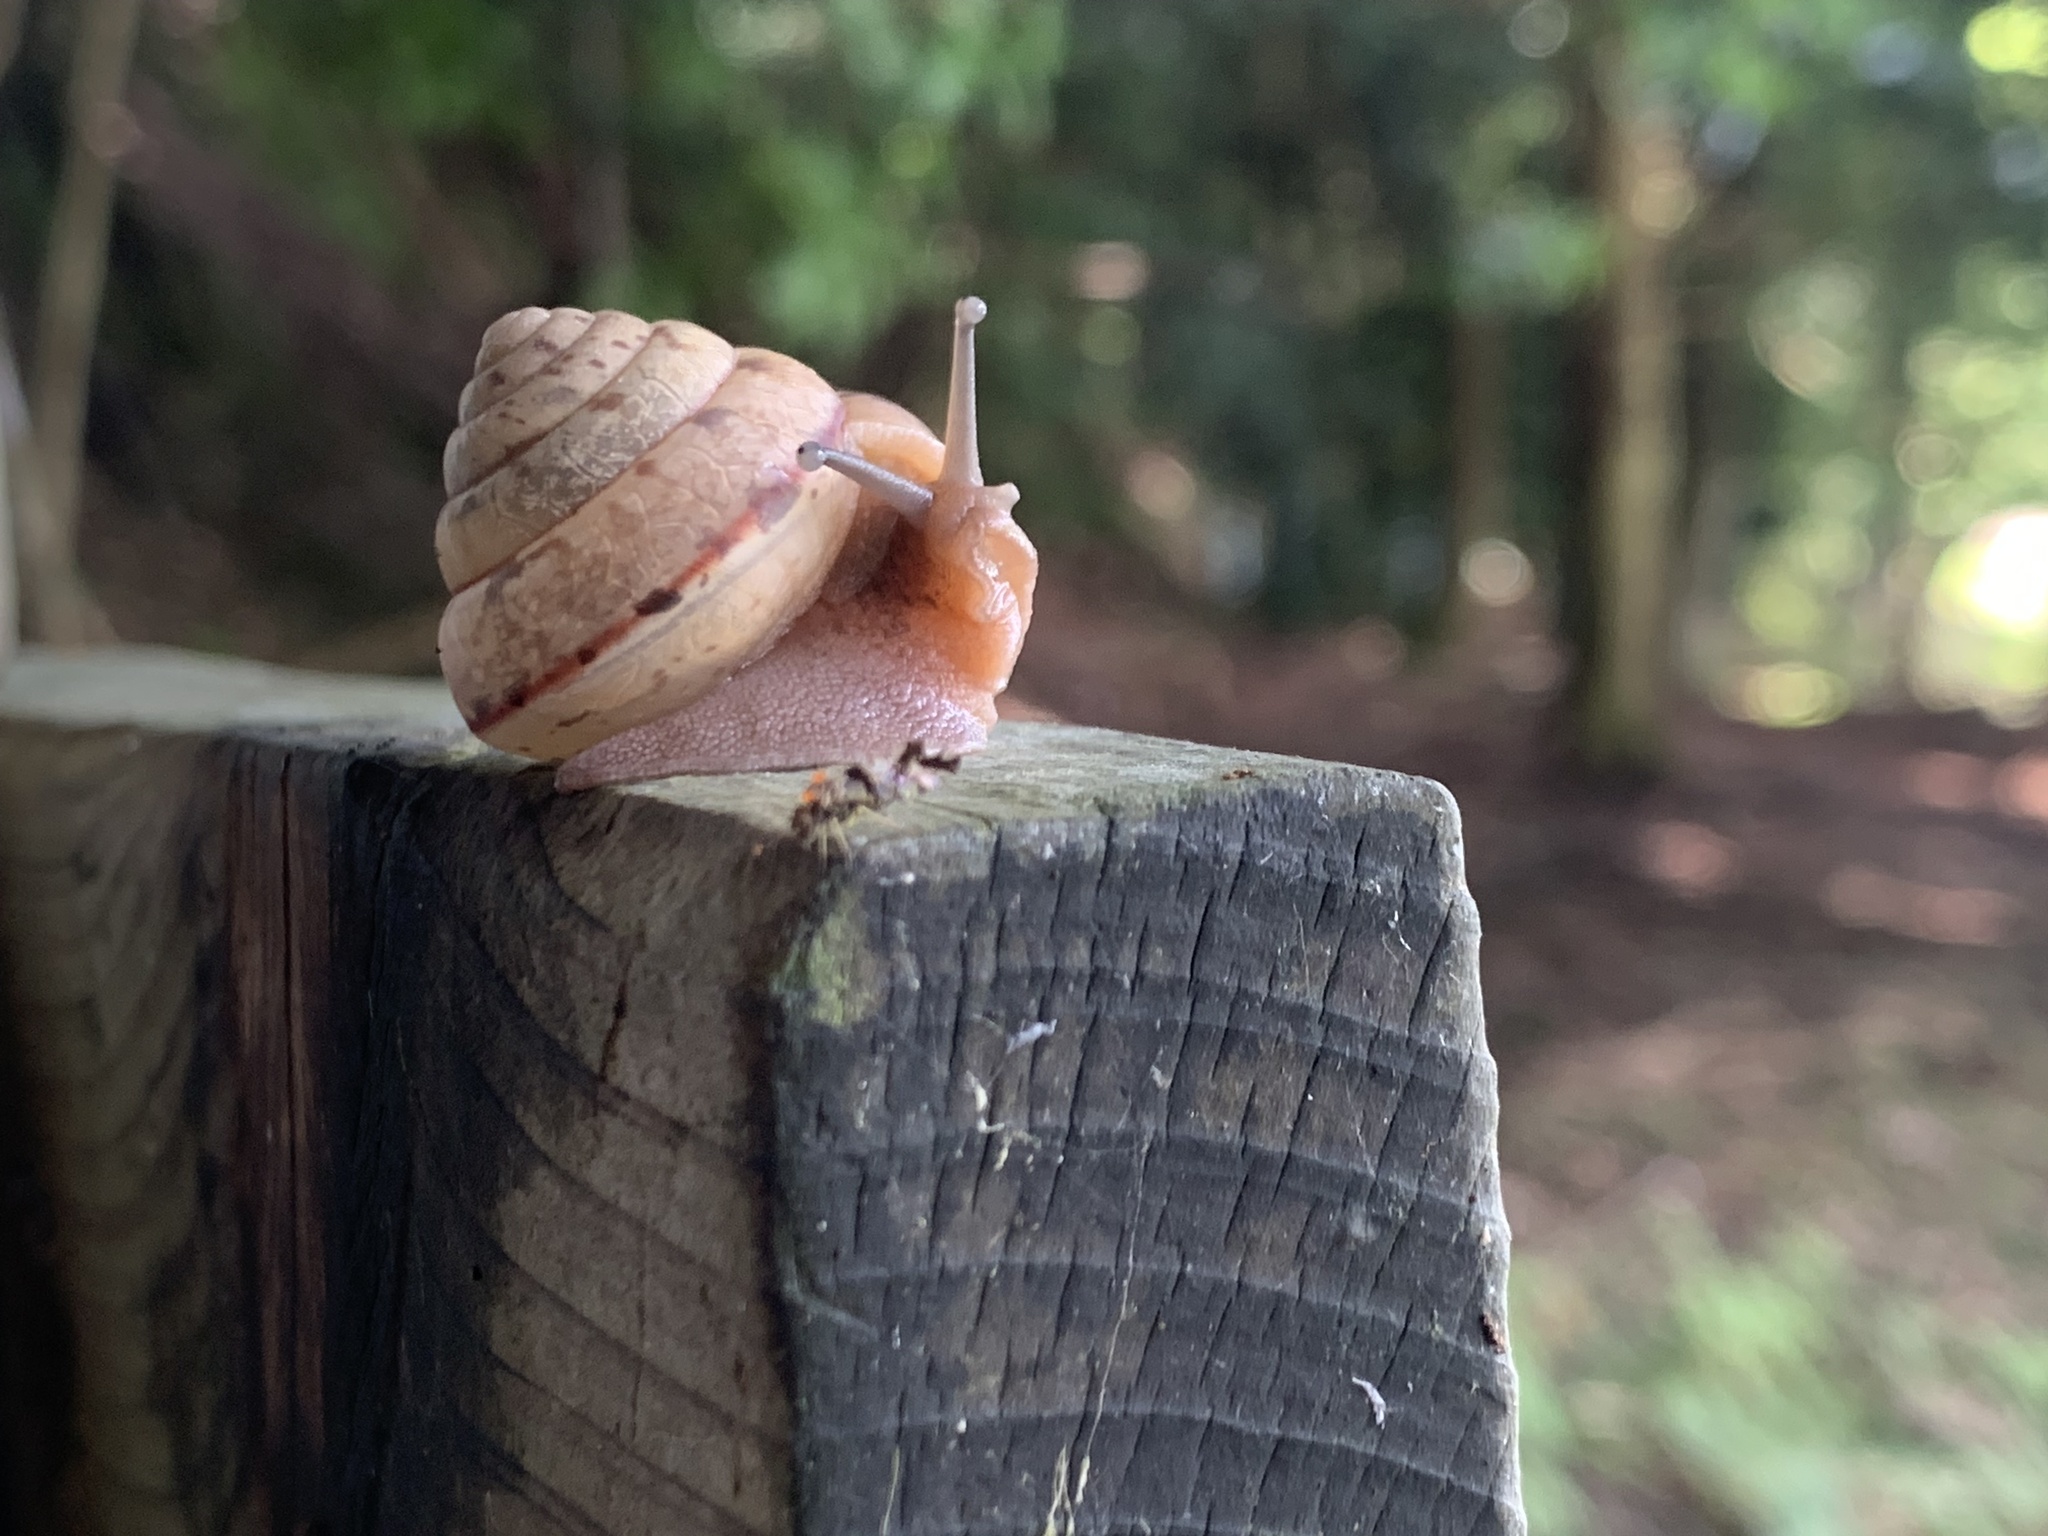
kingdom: Animalia
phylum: Mollusca
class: Gastropoda
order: Stylommatophora
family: Camaenidae
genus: Satsuma
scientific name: Satsuma papilliformis
